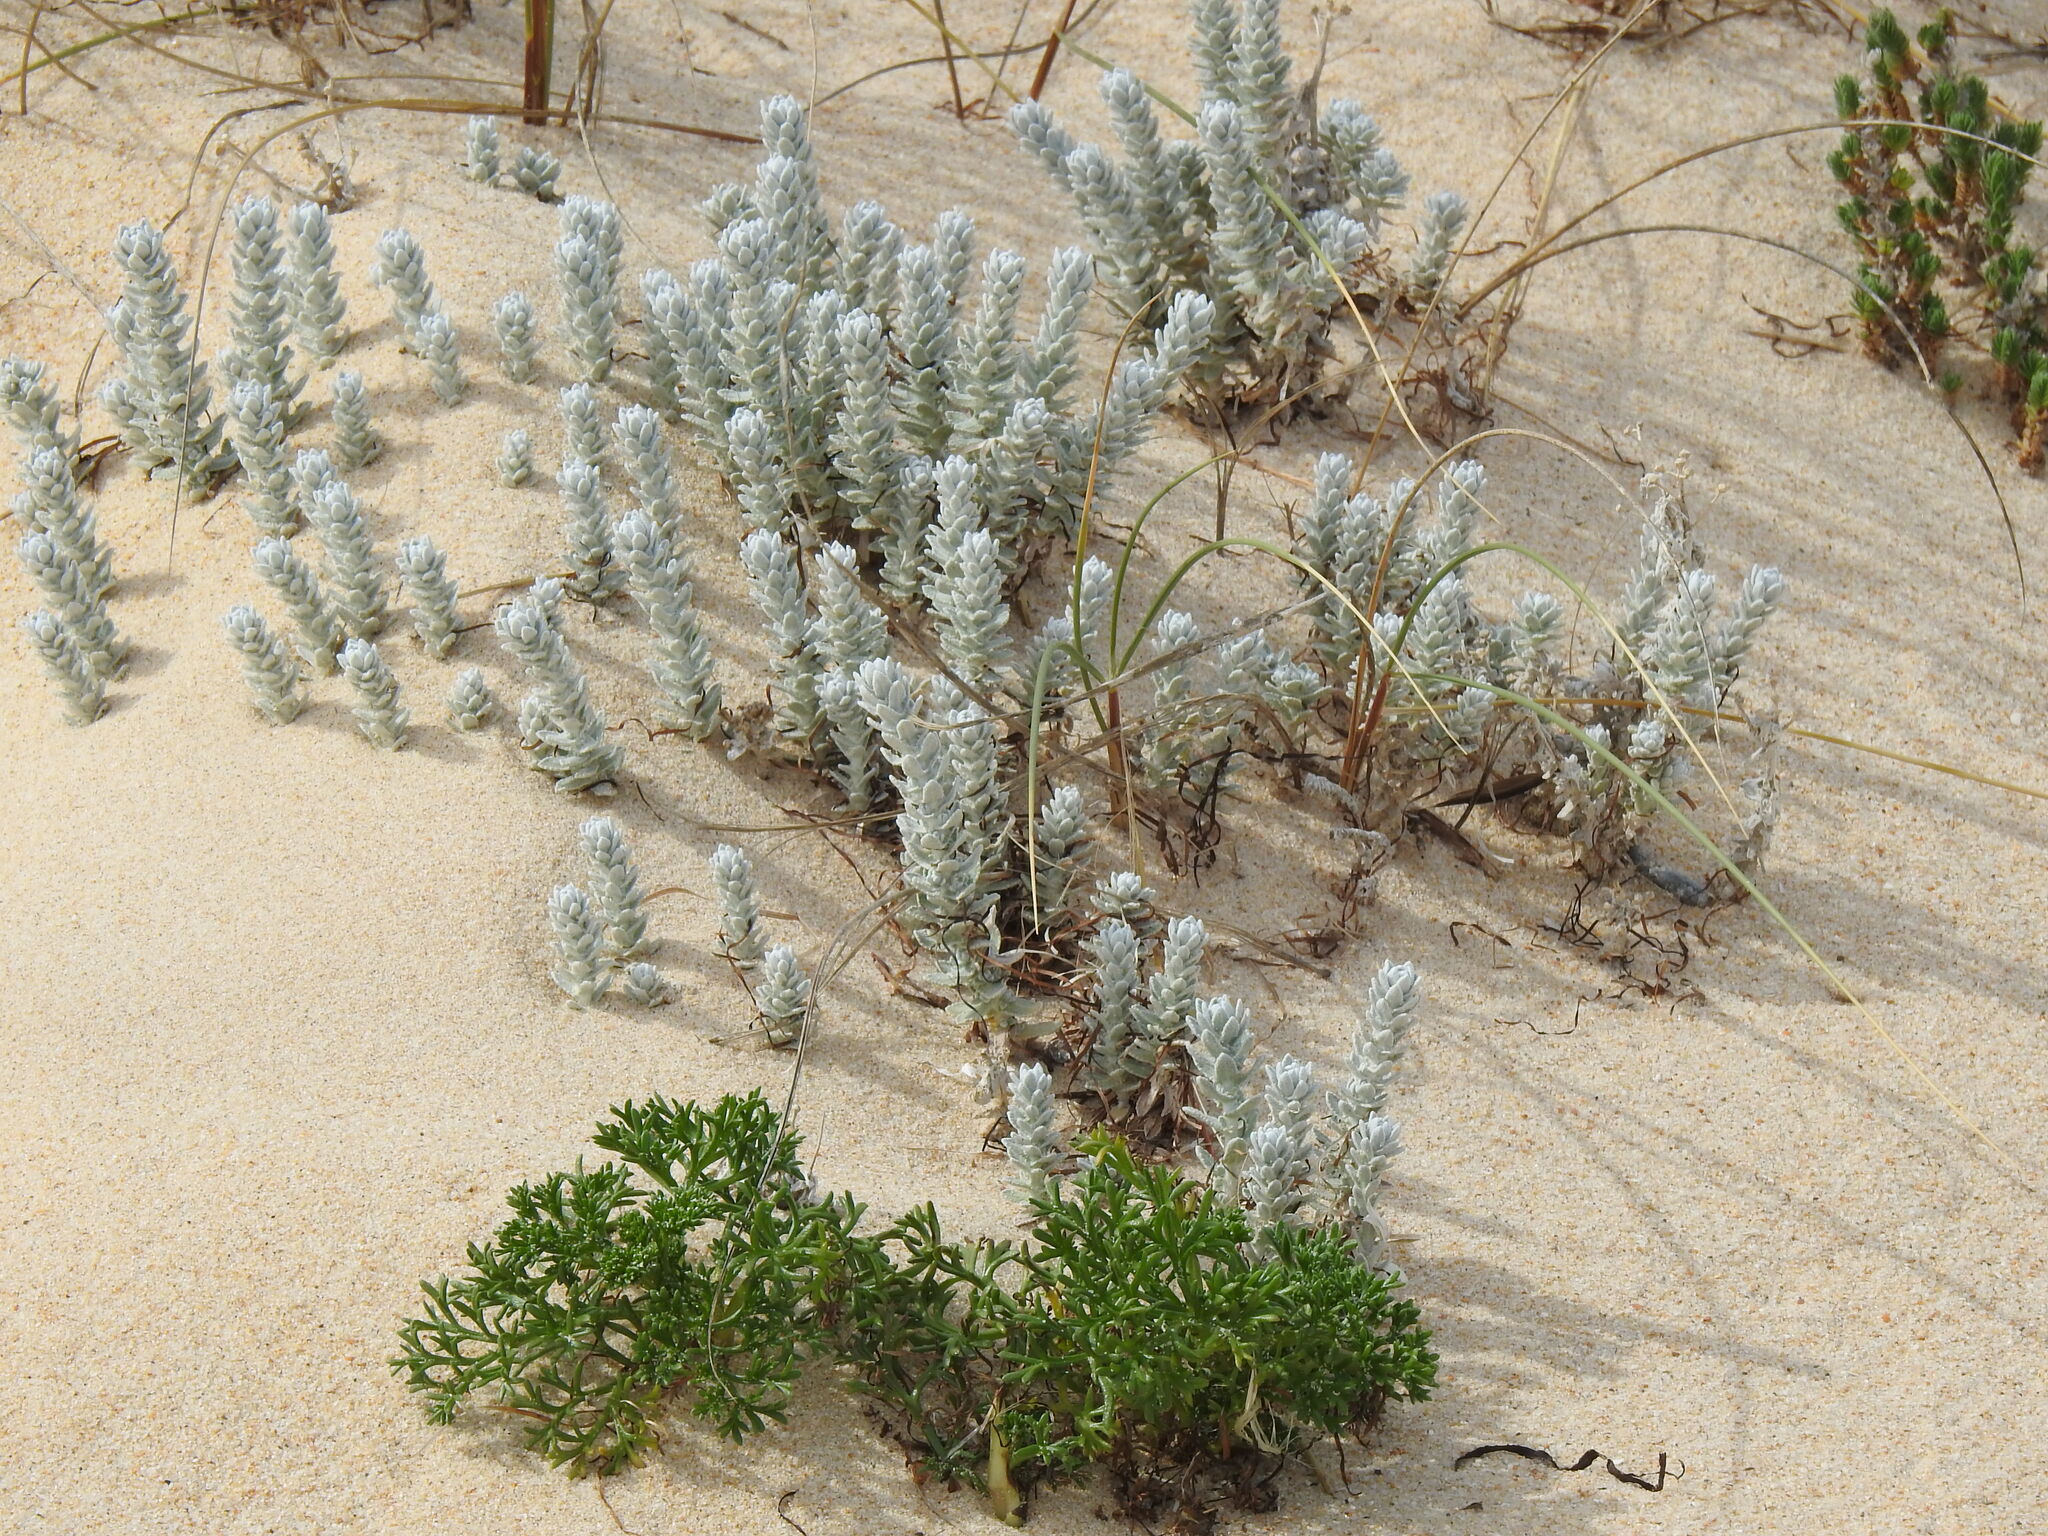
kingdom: Plantae
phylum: Tracheophyta
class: Magnoliopsida
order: Asterales
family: Asteraceae
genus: Achillea
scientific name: Achillea maritima
